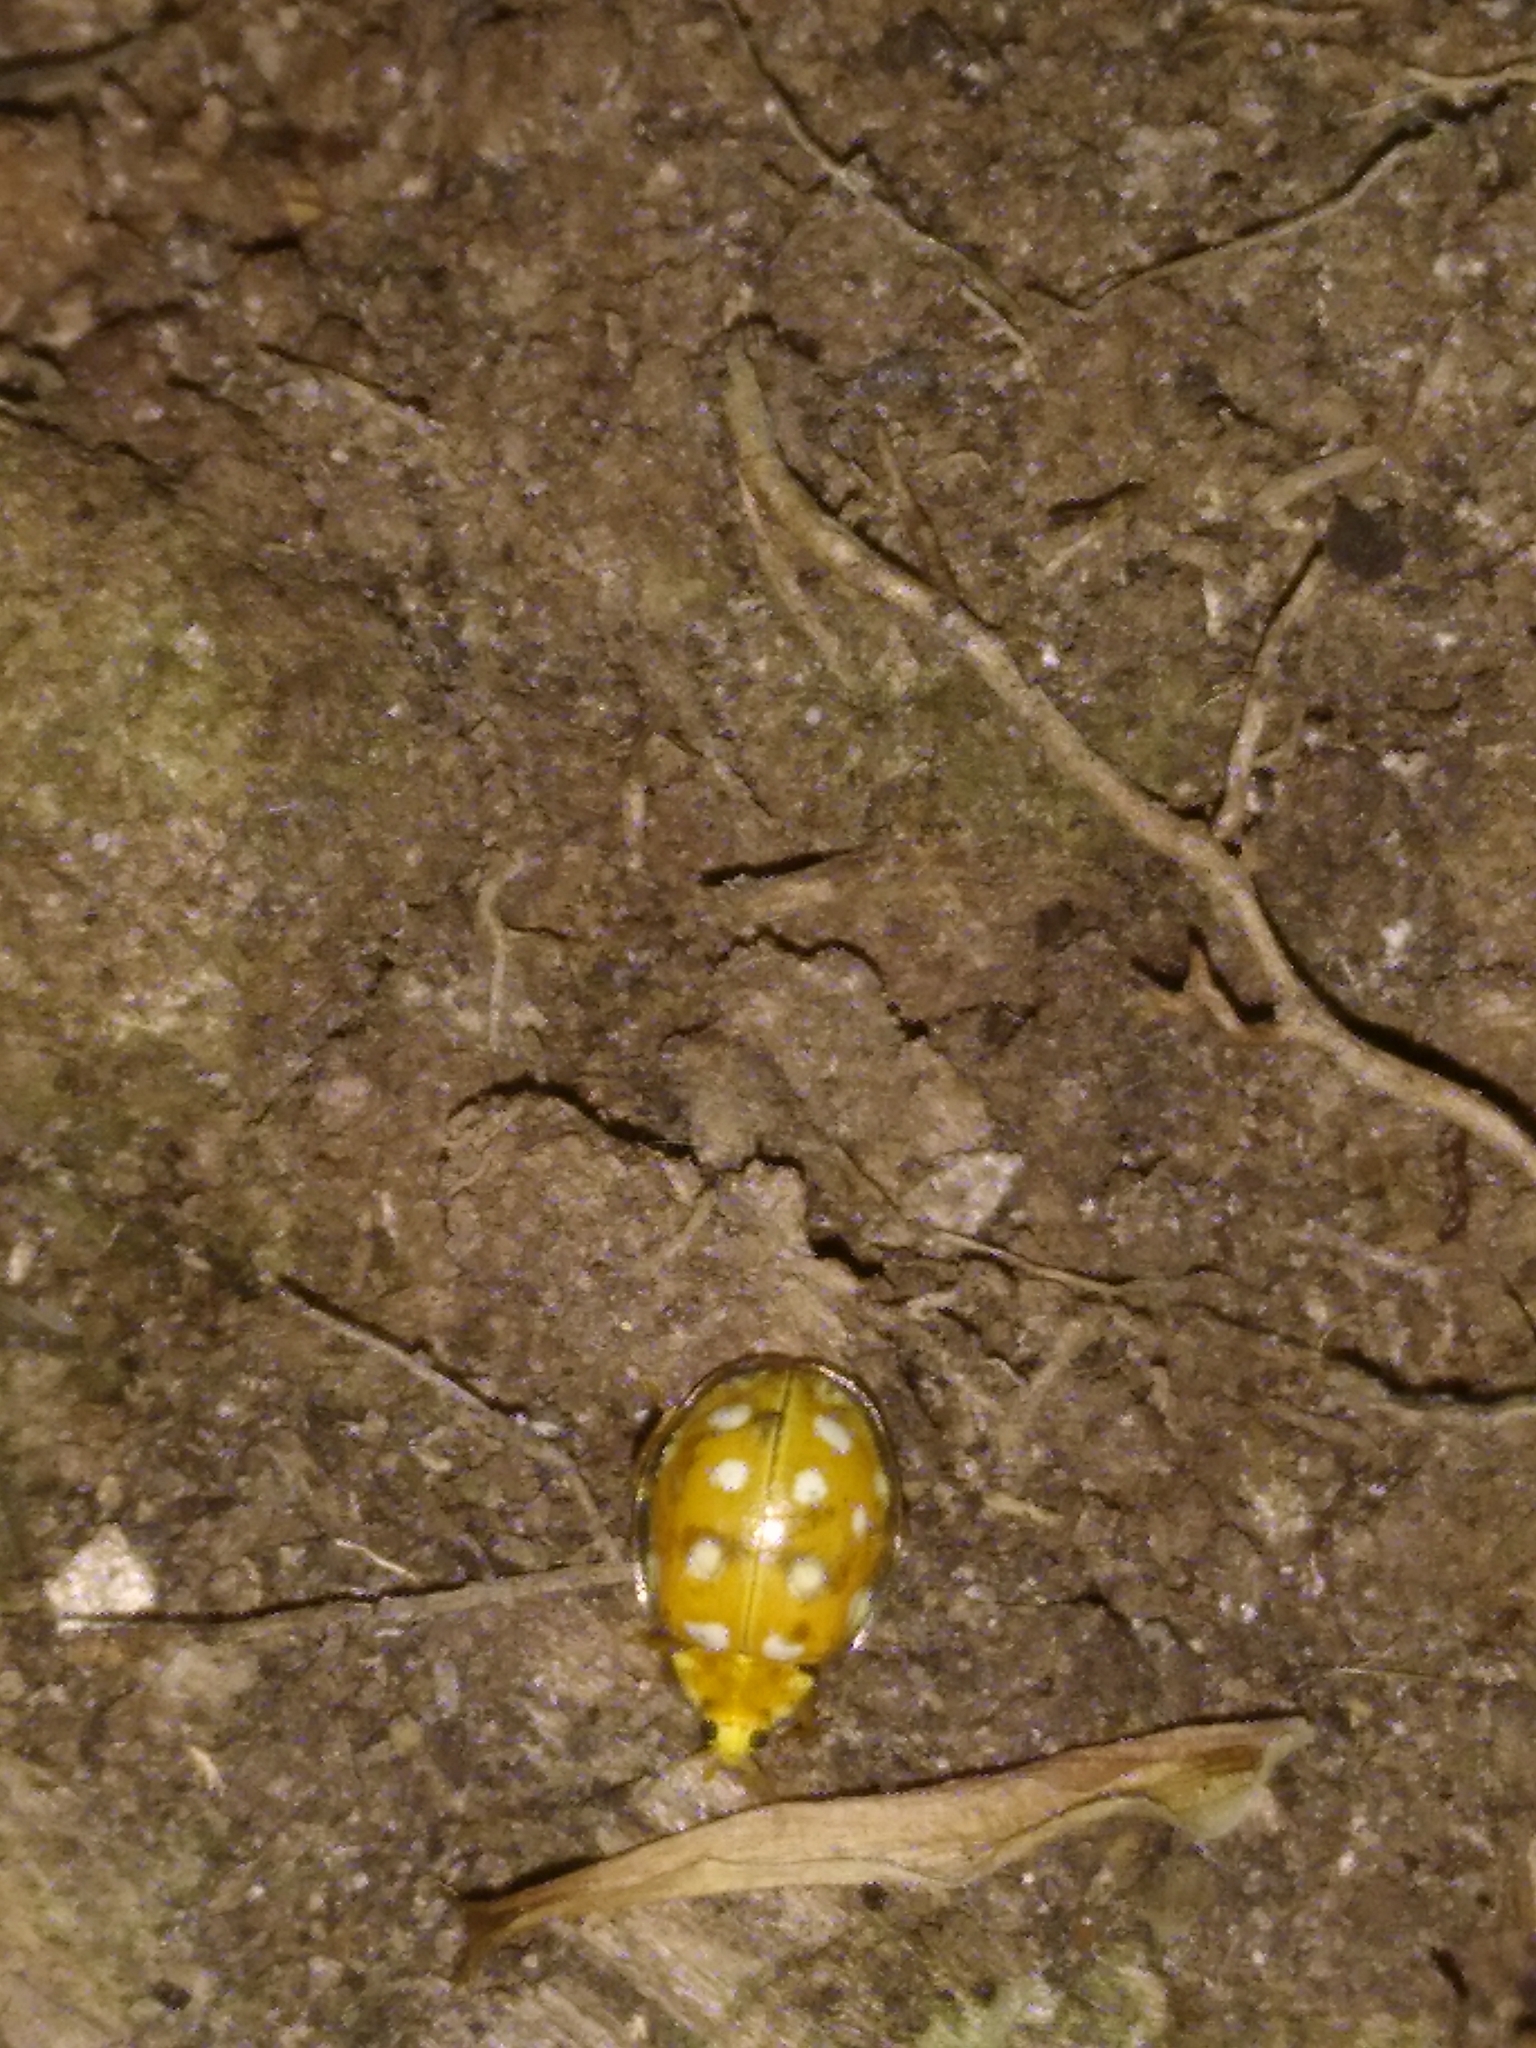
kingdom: Animalia
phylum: Arthropoda
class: Insecta
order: Coleoptera
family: Coccinellidae
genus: Halyzia
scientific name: Halyzia sedecimguttata
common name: Orange ladybird
